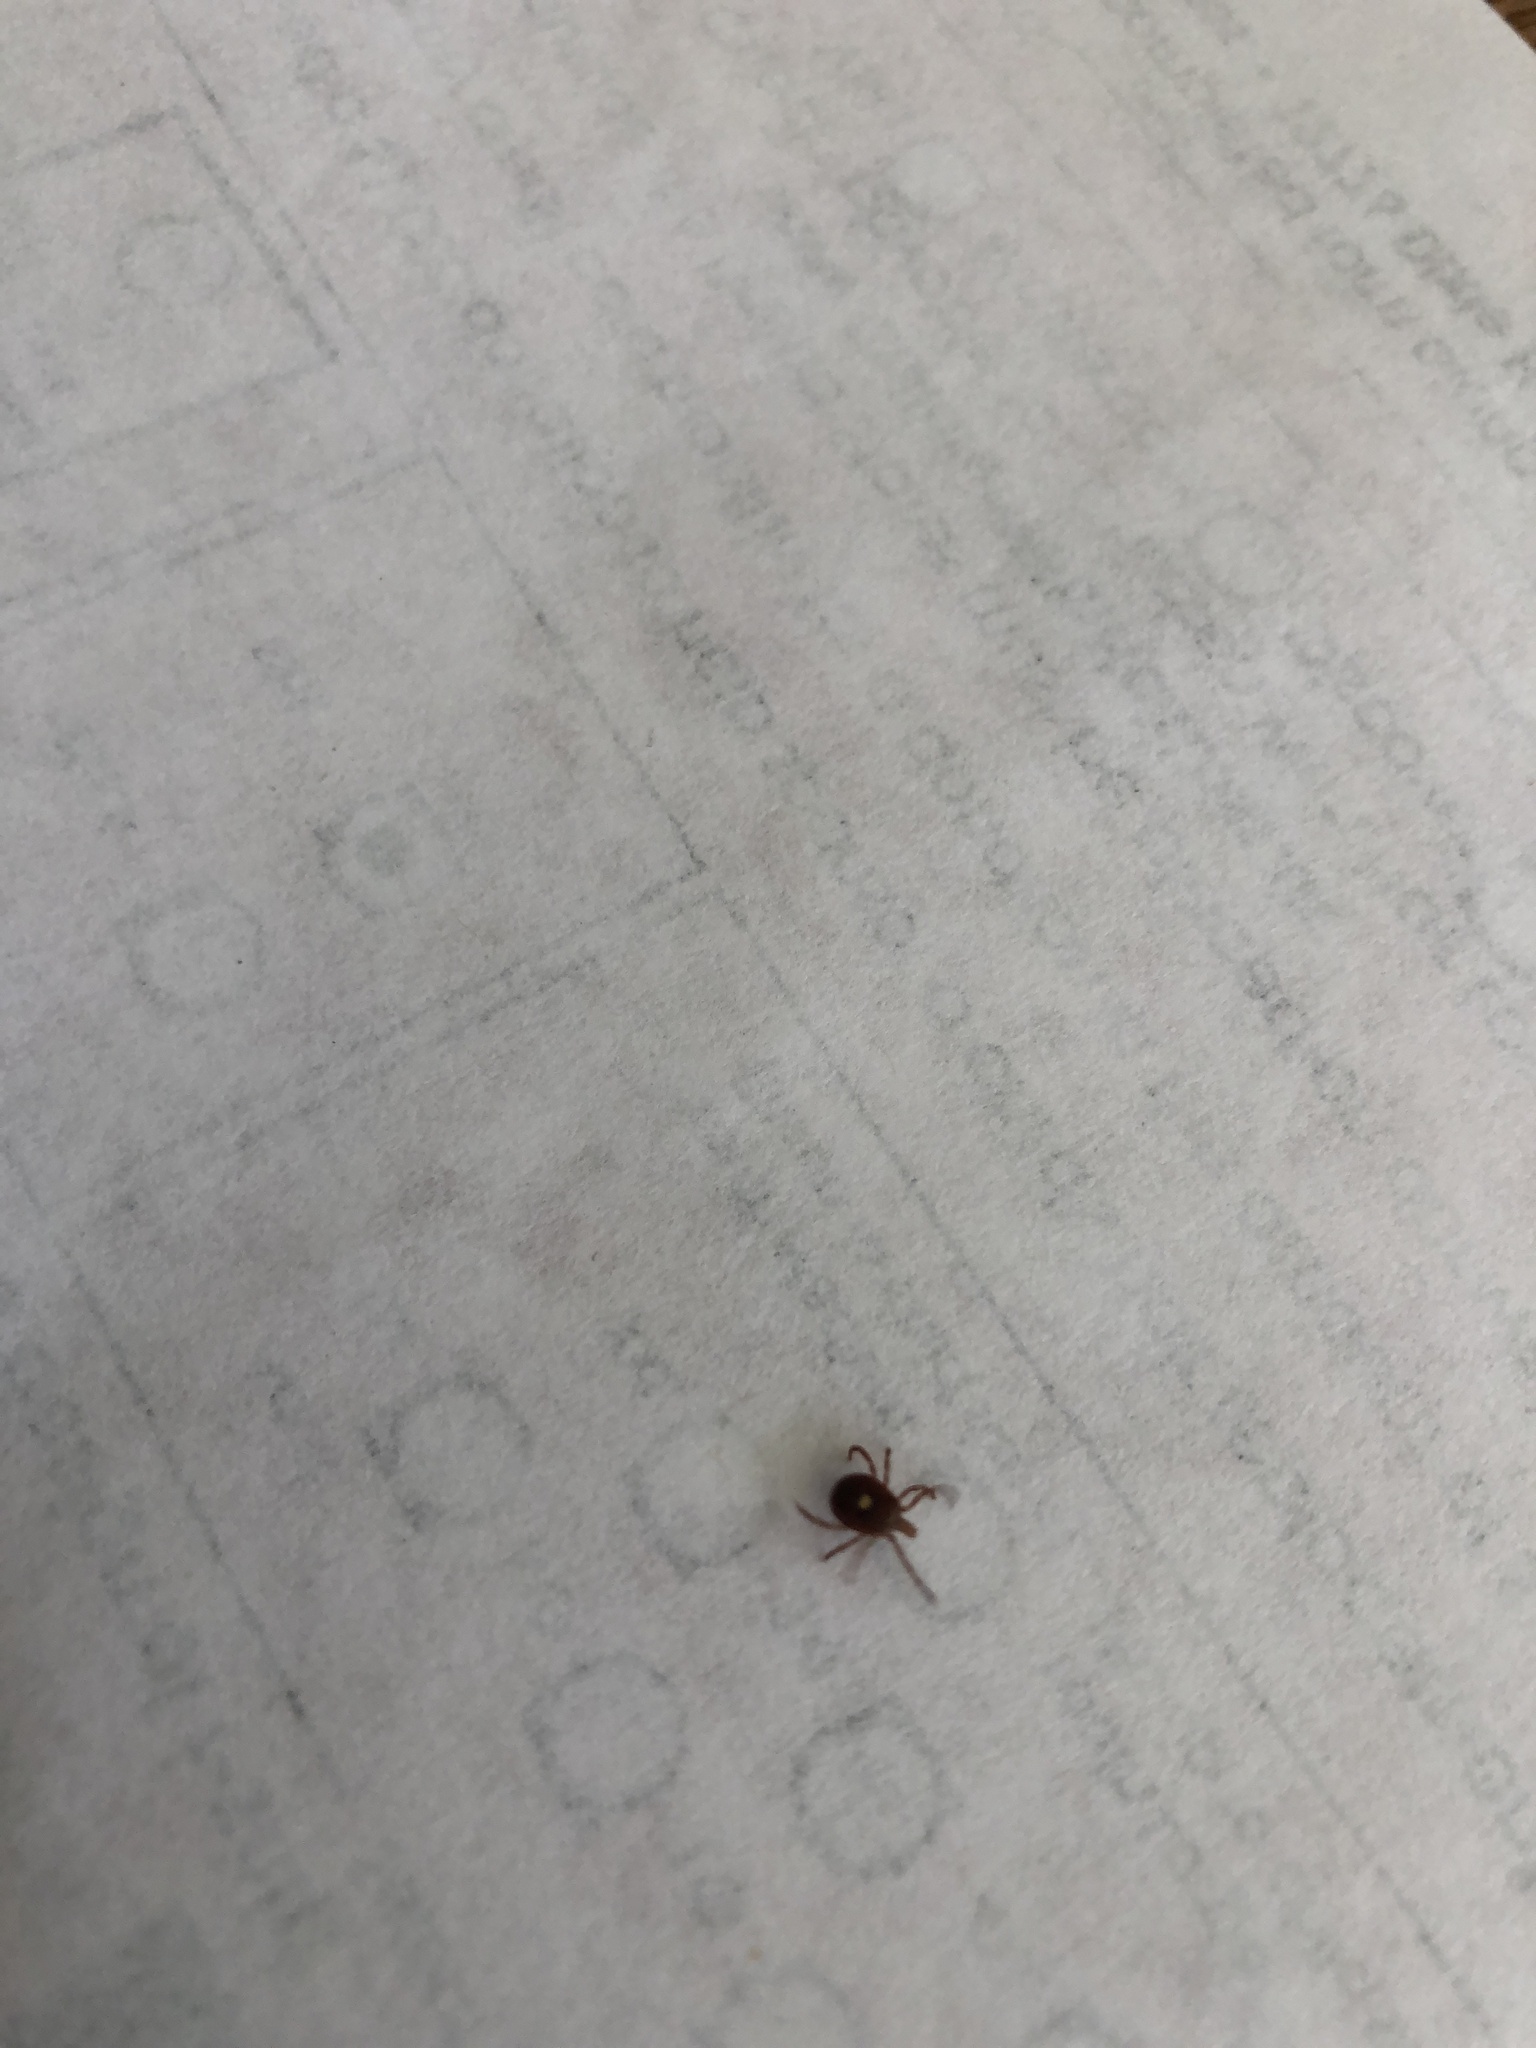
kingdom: Animalia
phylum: Arthropoda
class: Arachnida
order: Ixodida
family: Ixodidae
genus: Amblyomma
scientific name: Amblyomma americanum
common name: Lone star tick
